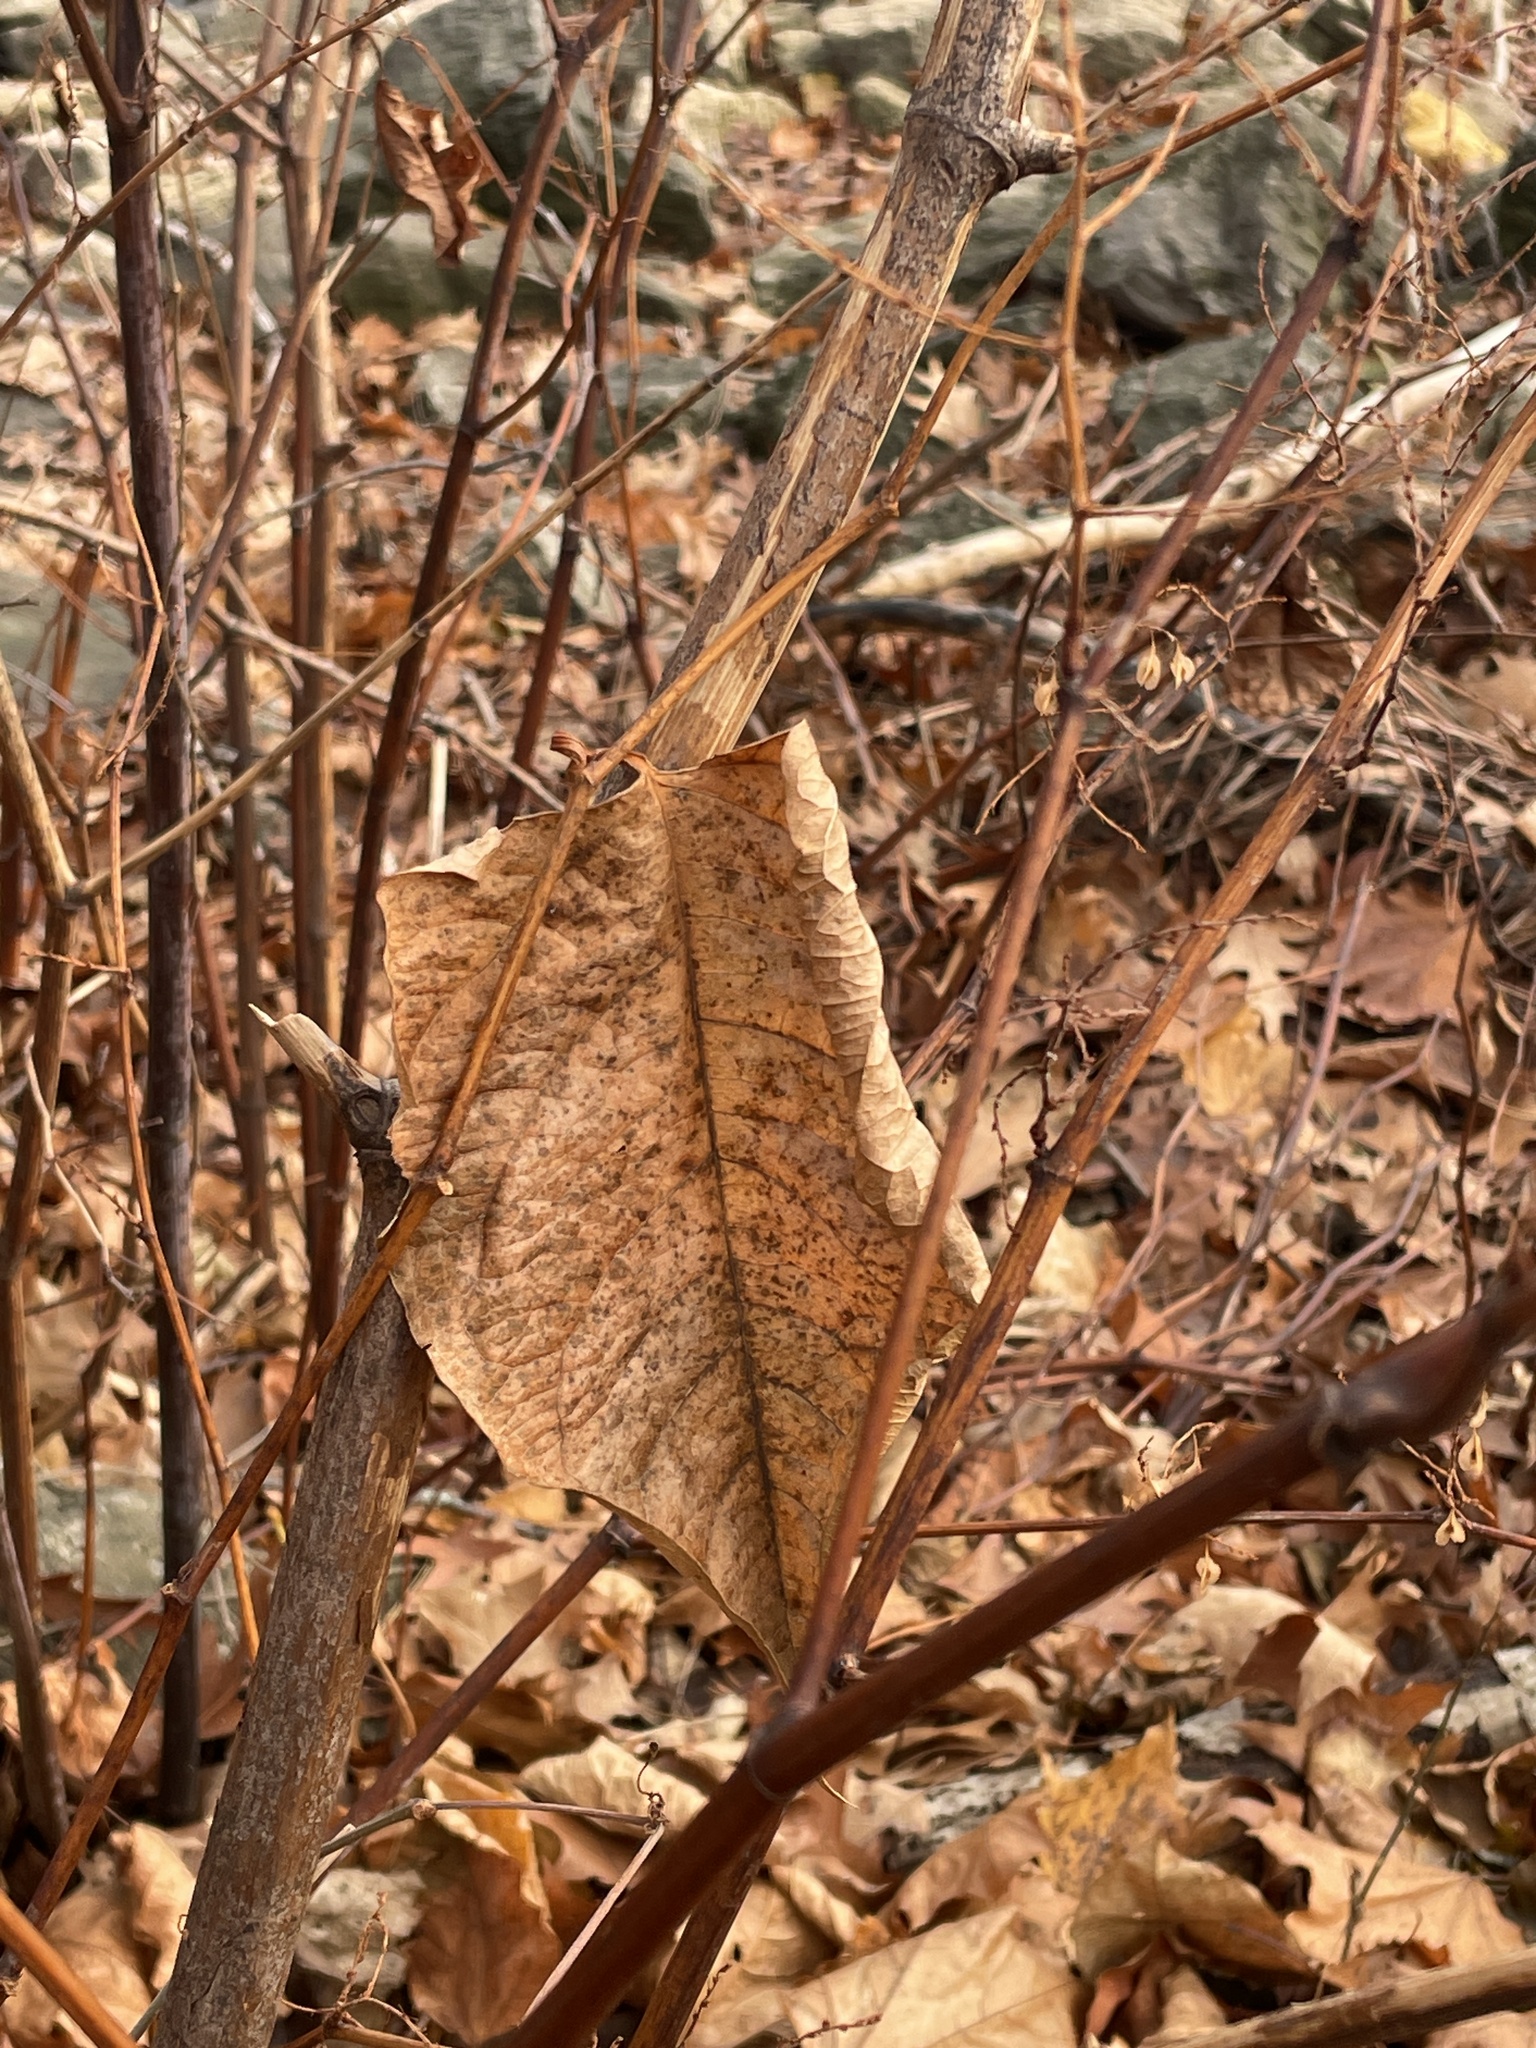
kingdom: Plantae
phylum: Tracheophyta
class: Magnoliopsida
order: Caryophyllales
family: Polygonaceae
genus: Reynoutria
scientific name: Reynoutria japonica
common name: Japanese knotweed
